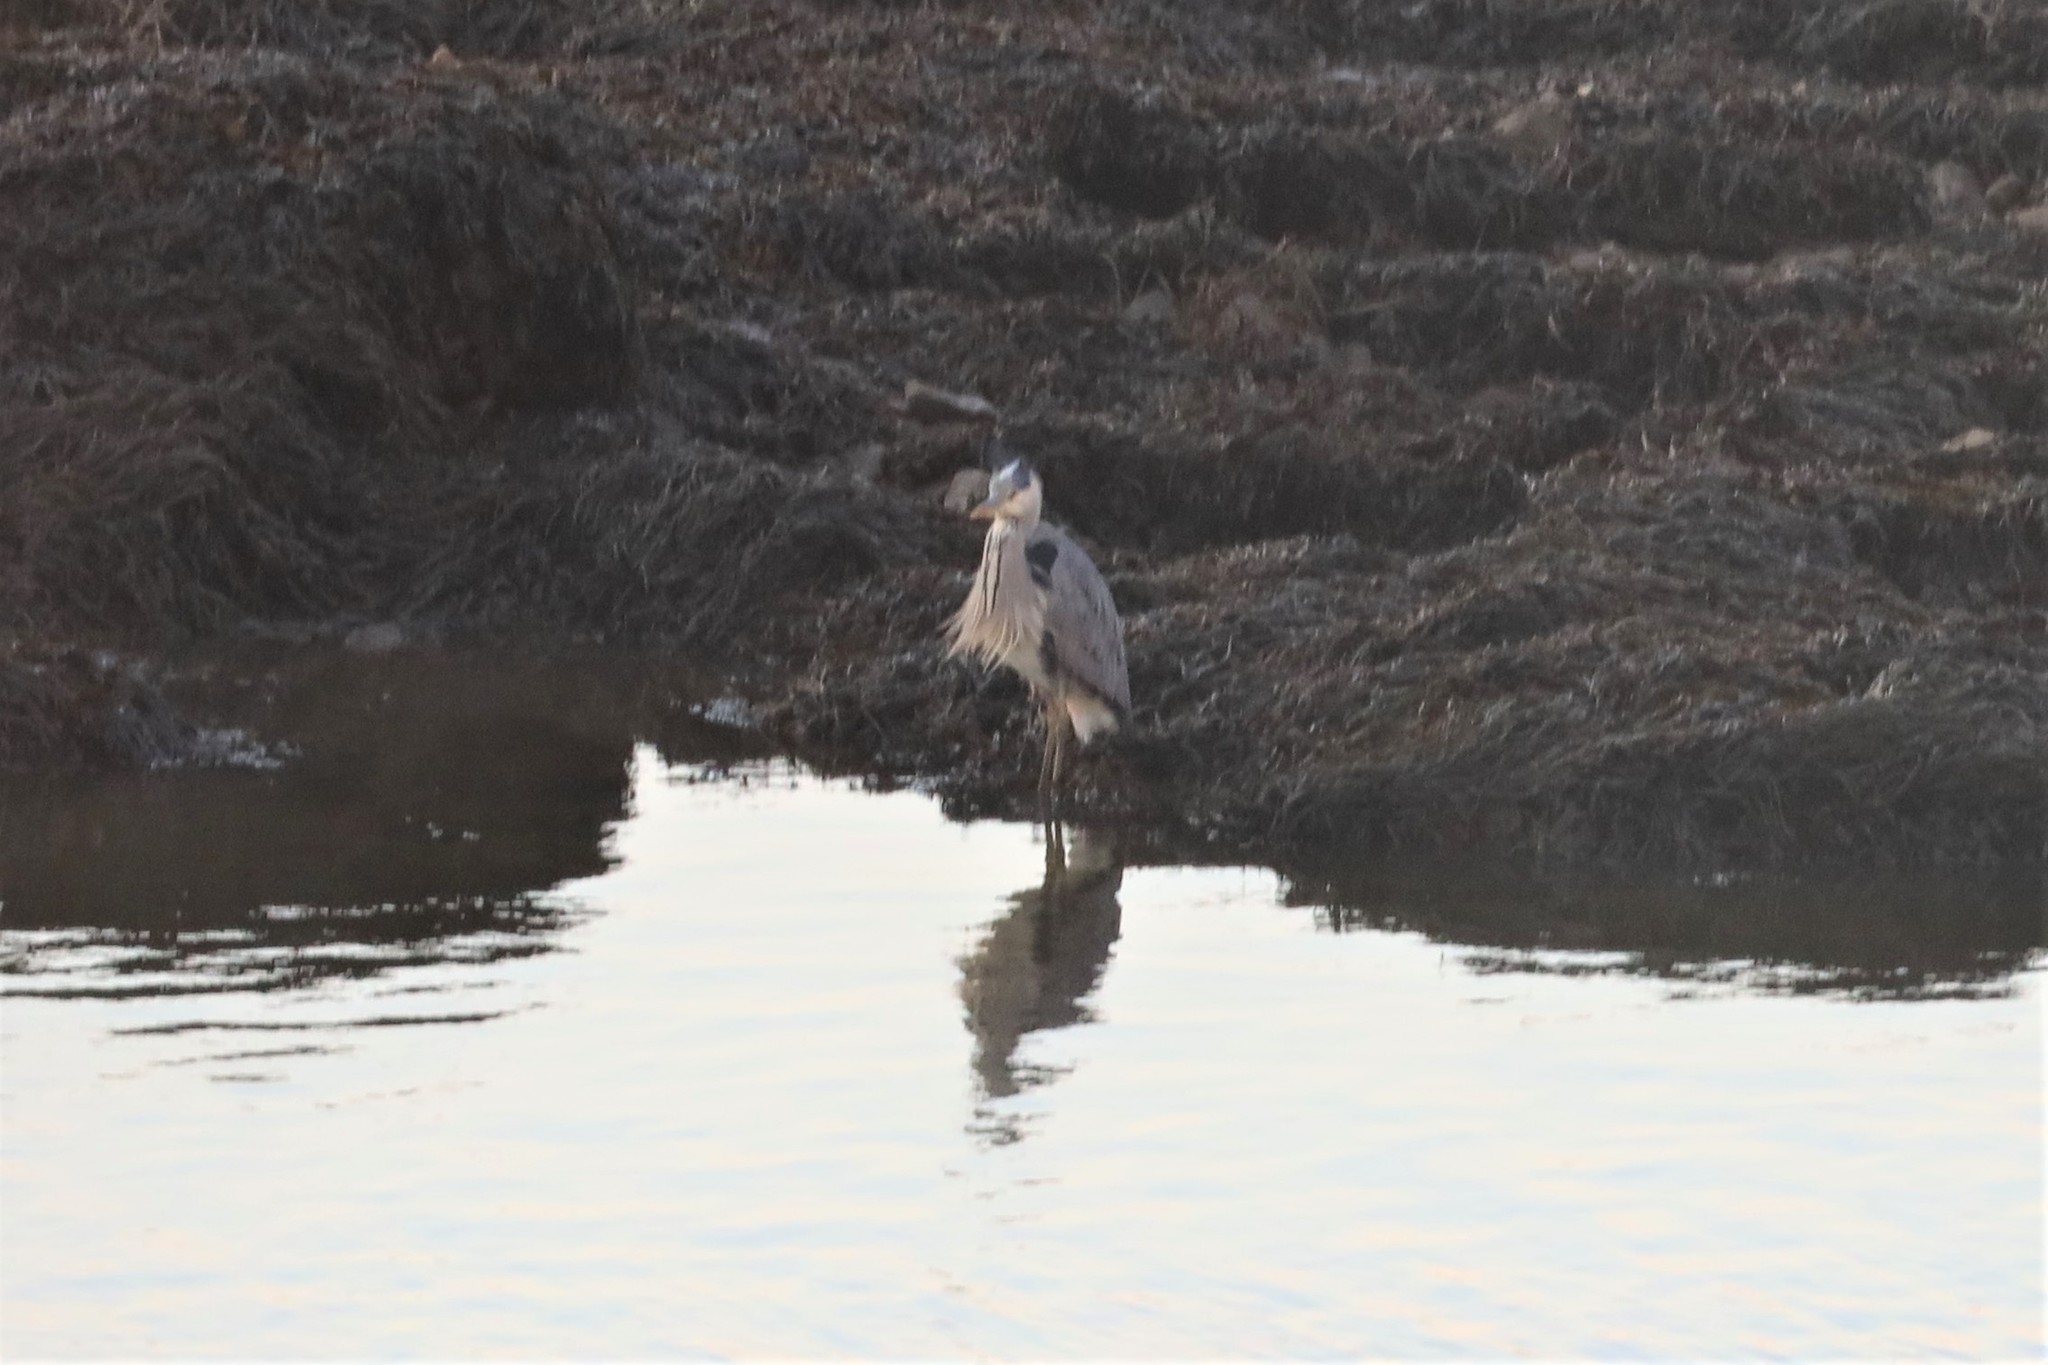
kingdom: Animalia
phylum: Chordata
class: Aves
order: Pelecaniformes
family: Ardeidae
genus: Ardea
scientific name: Ardea cinerea
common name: Grey heron
